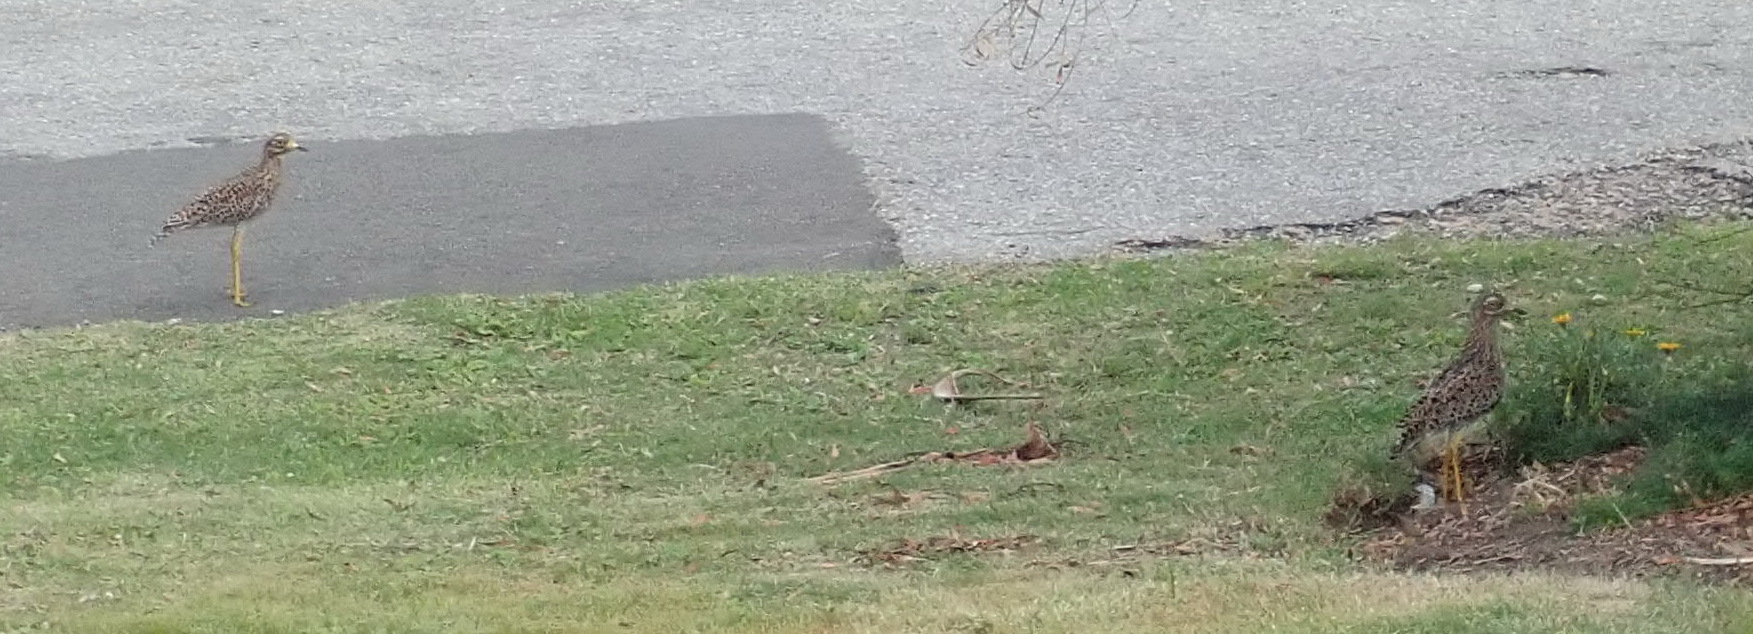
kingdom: Animalia
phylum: Chordata
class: Aves
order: Charadriiformes
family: Burhinidae
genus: Burhinus
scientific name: Burhinus capensis
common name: Spotted thick-knee
